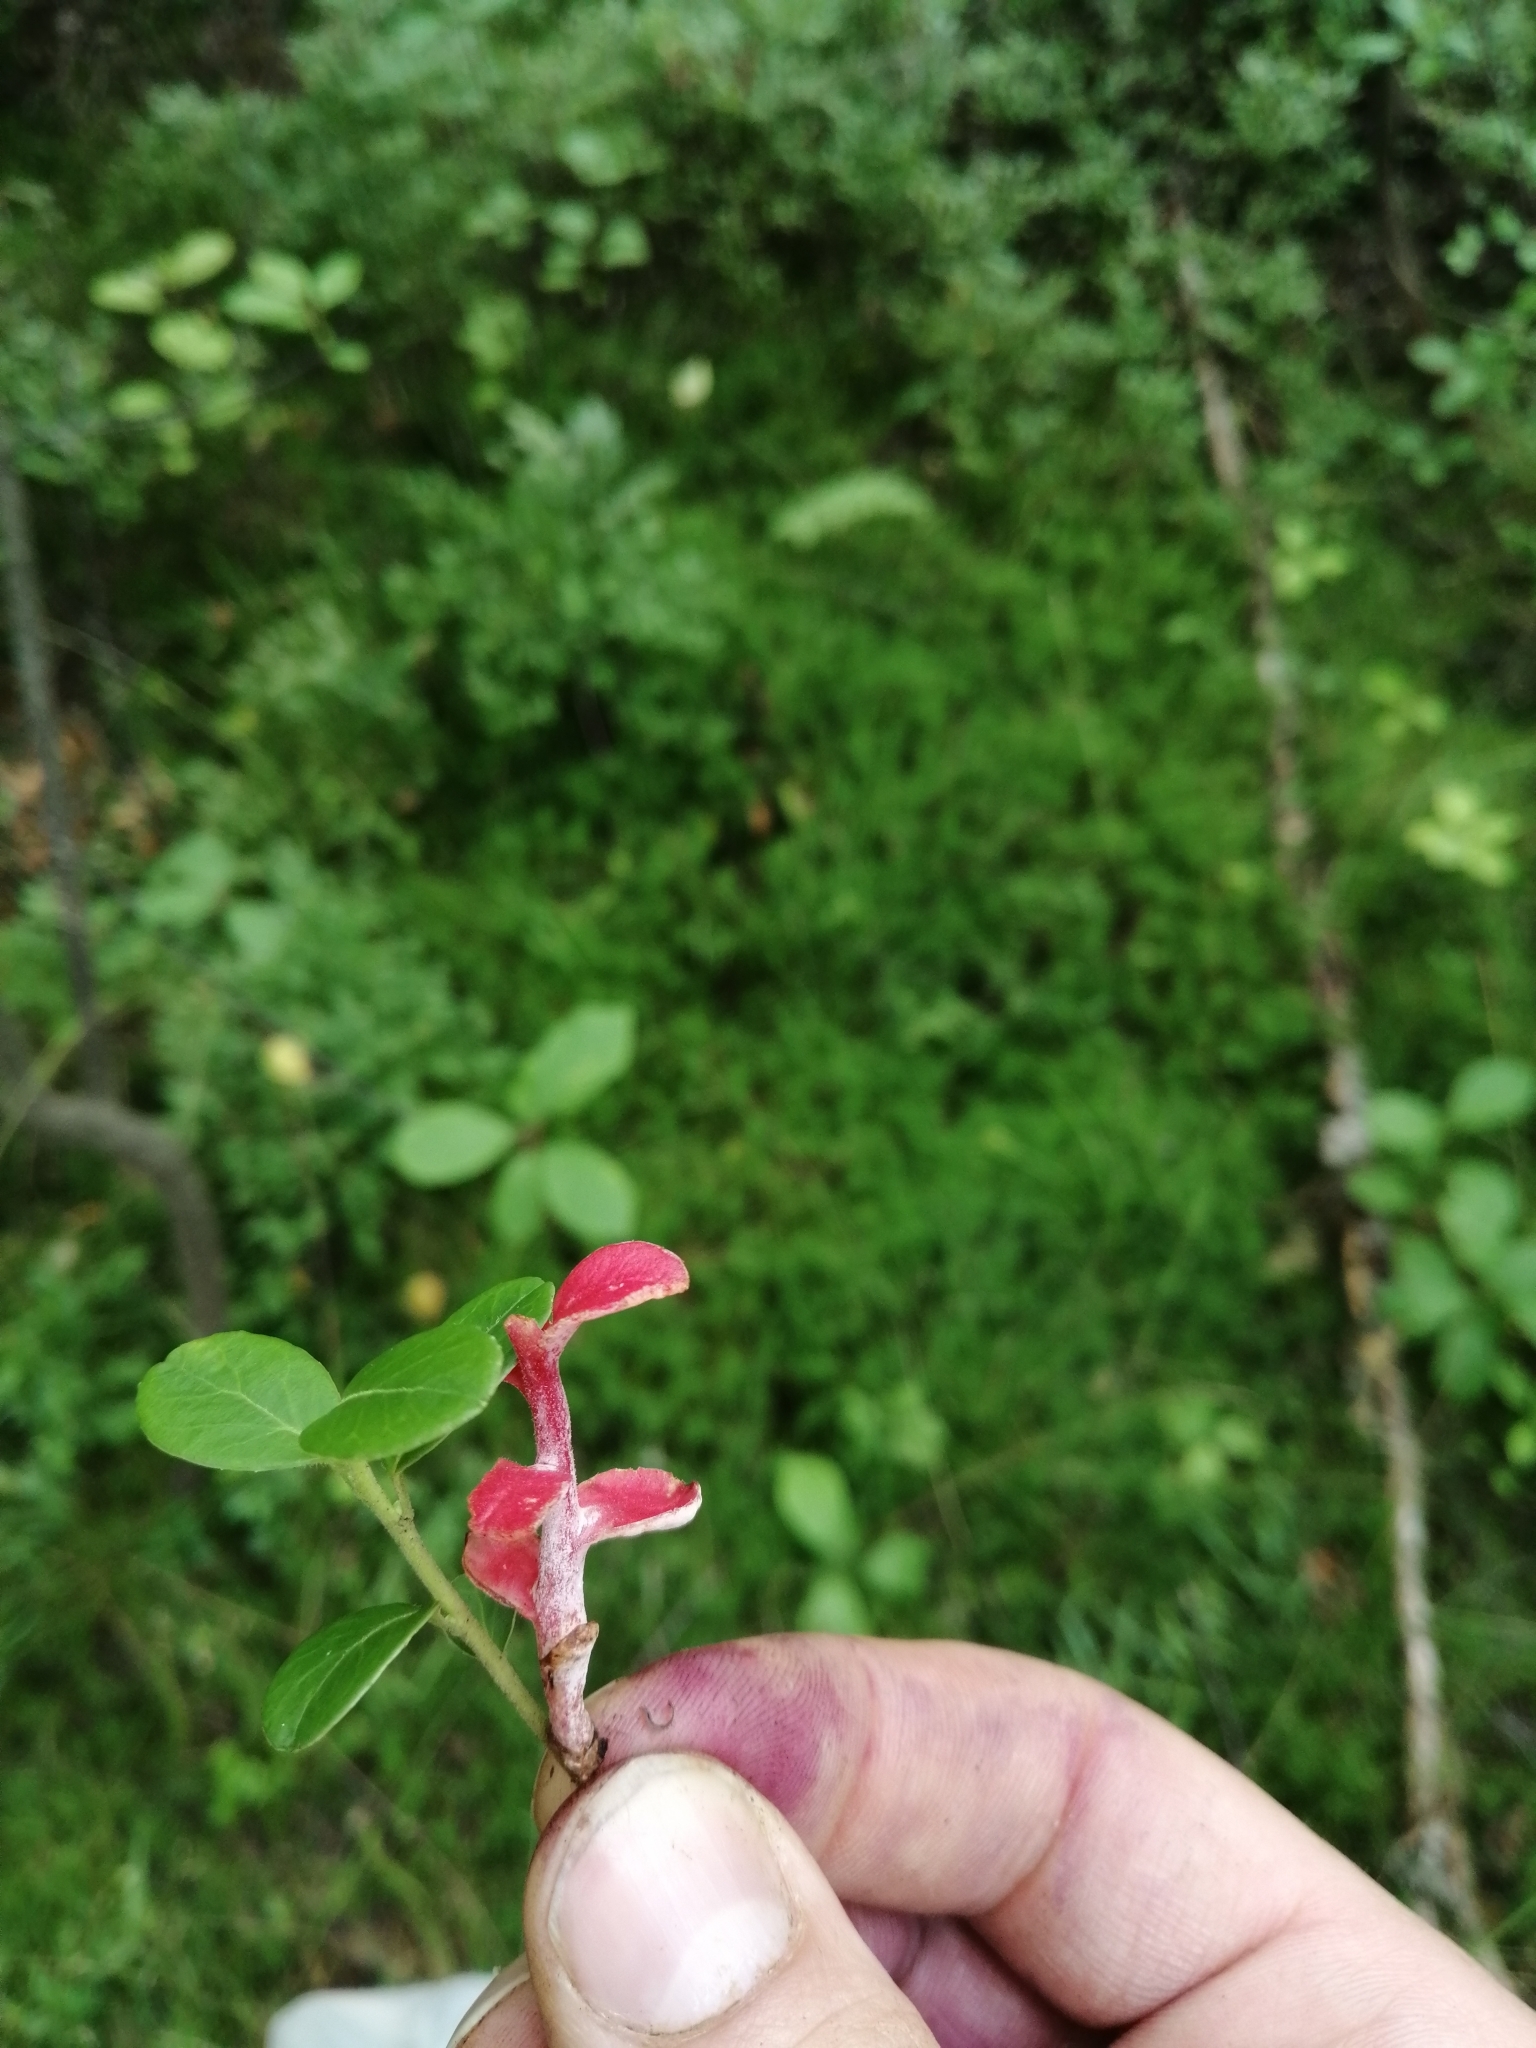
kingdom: Plantae
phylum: Tracheophyta
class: Magnoliopsida
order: Ericales
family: Ericaceae
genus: Vaccinium
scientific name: Vaccinium vitis-idaea
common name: Cowberry
